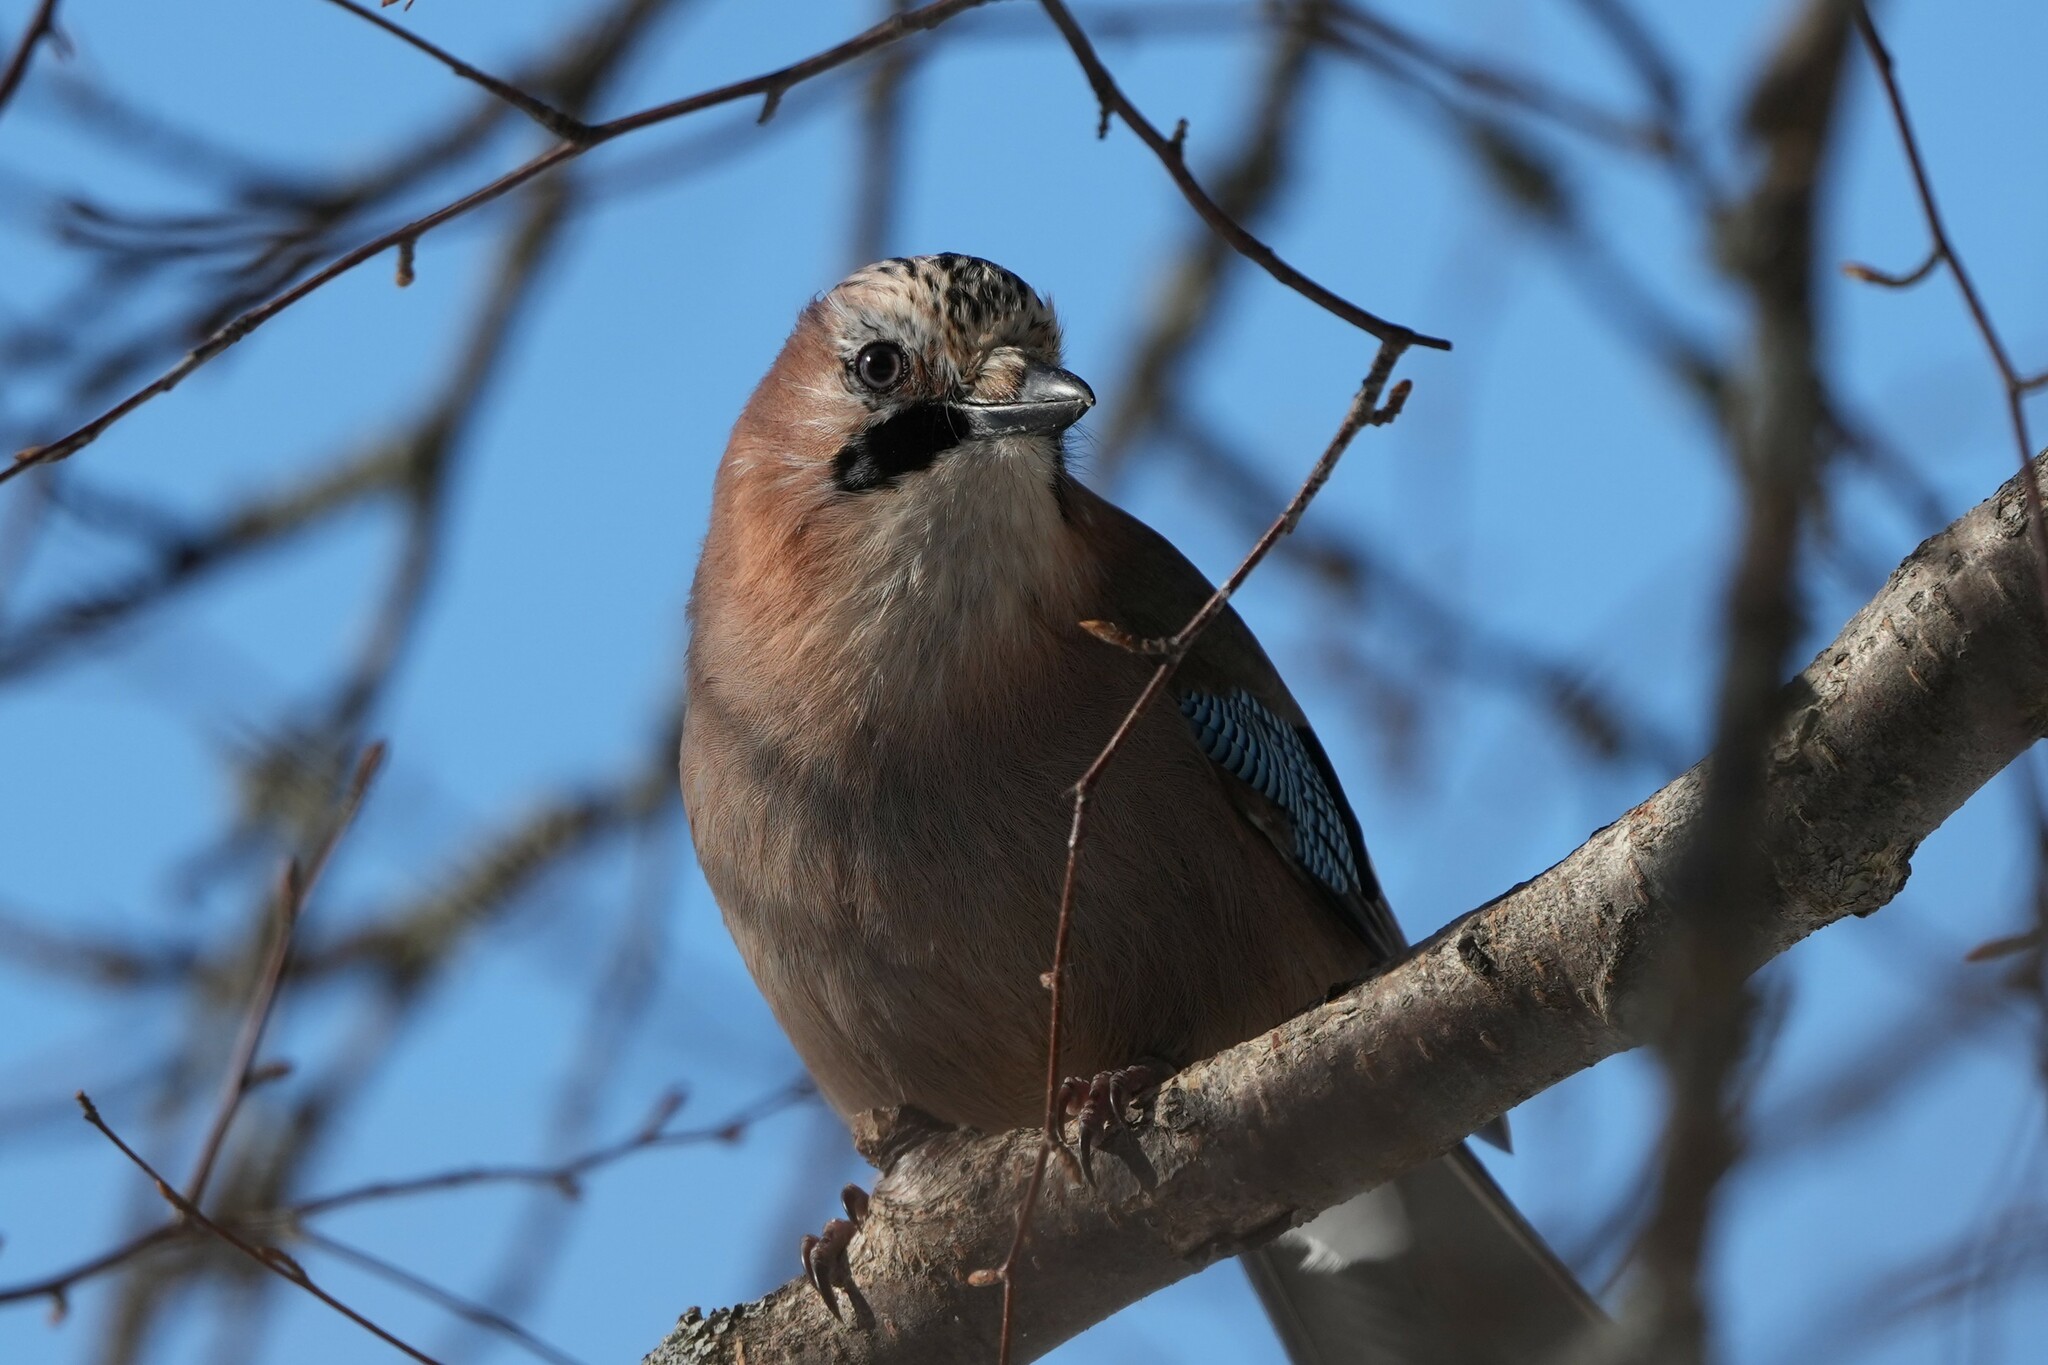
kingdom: Animalia
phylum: Chordata
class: Aves
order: Passeriformes
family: Corvidae
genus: Garrulus
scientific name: Garrulus glandarius
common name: Eurasian jay
